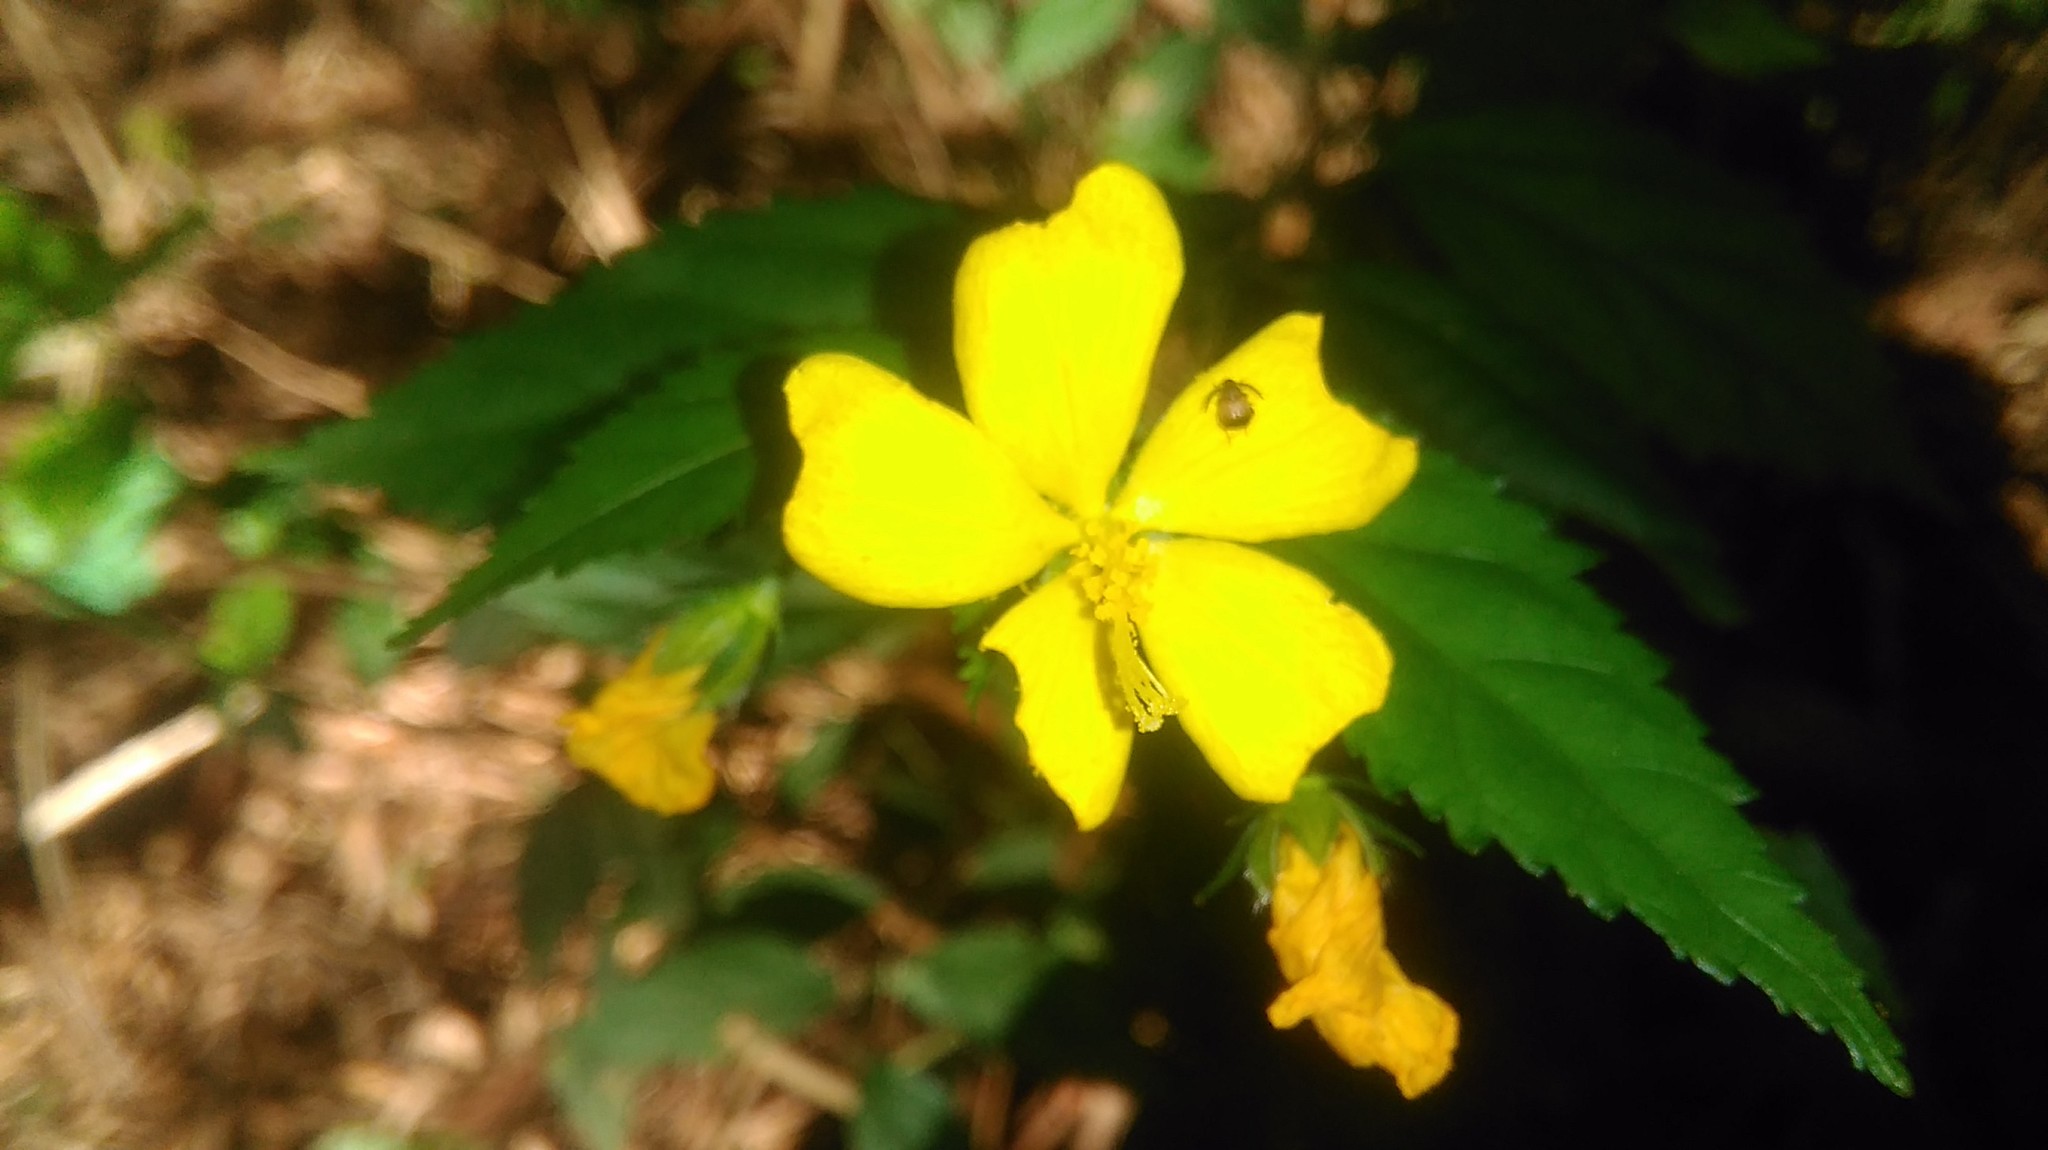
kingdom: Plantae
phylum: Tracheophyta
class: Magnoliopsida
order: Malvales
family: Malvaceae
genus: Pavonia
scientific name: Pavonia sepium
